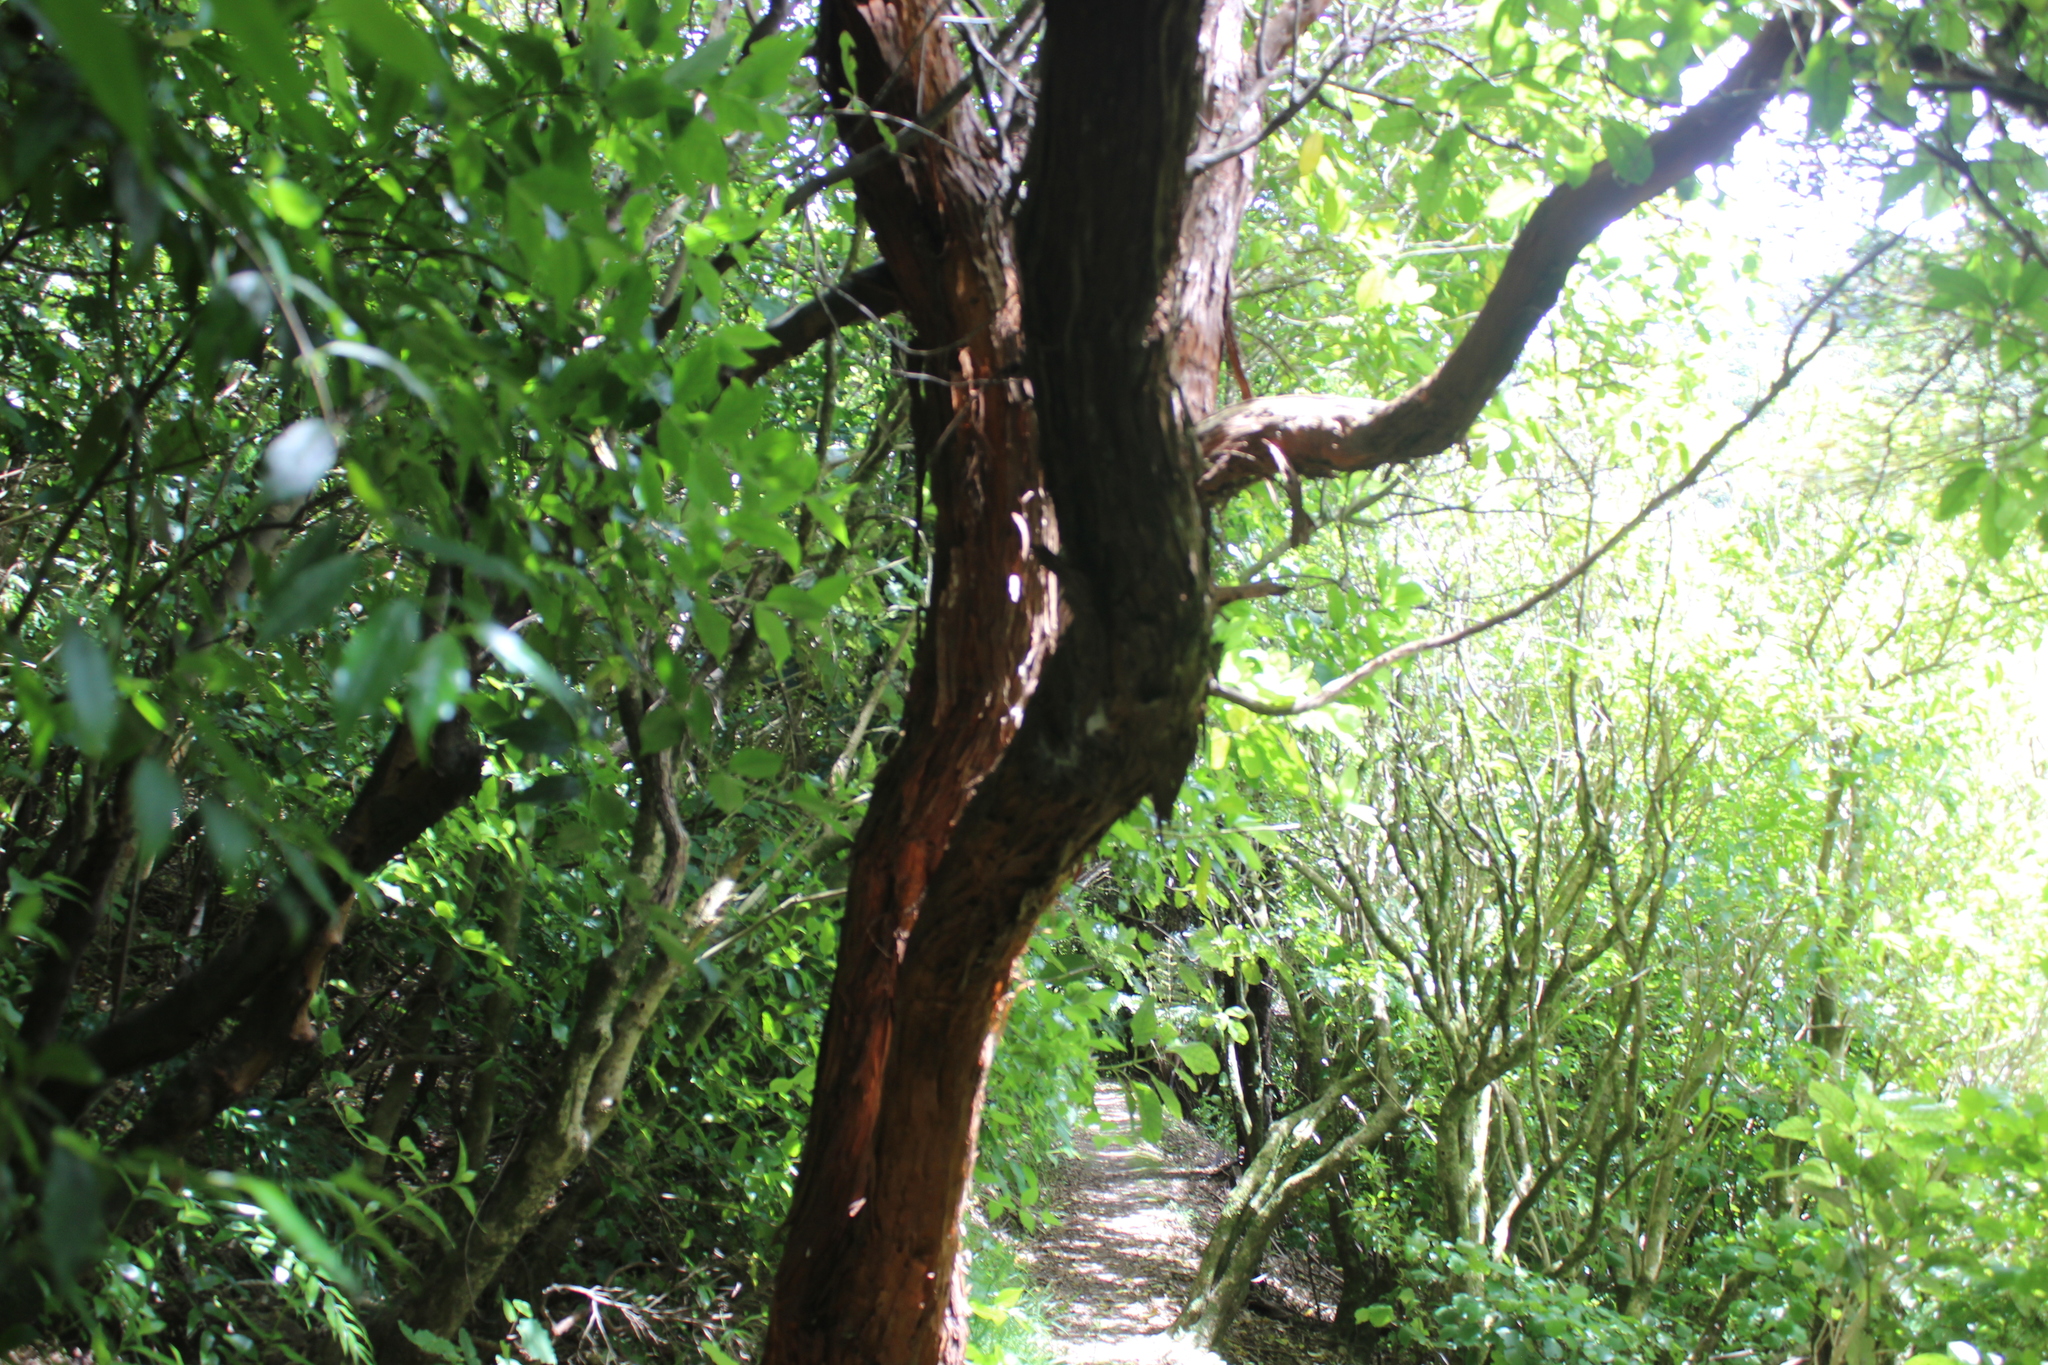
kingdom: Plantae
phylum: Tracheophyta
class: Magnoliopsida
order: Myrtales
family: Onagraceae
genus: Fuchsia
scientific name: Fuchsia excorticata
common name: Tree fuchsia
